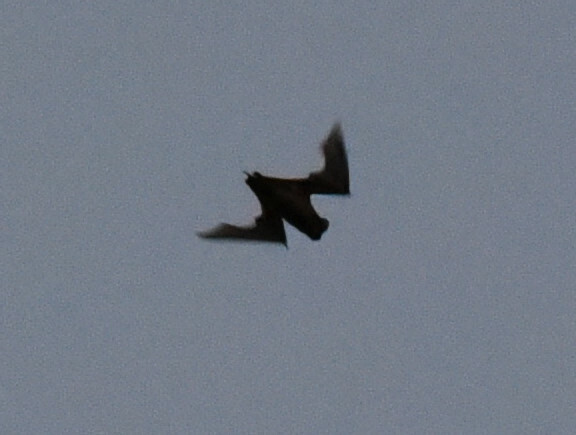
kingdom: Animalia
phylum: Chordata
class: Mammalia
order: Chiroptera
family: Molossidae
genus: Tadarida
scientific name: Tadarida brasiliensis
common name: Mexican free-tailed bat
